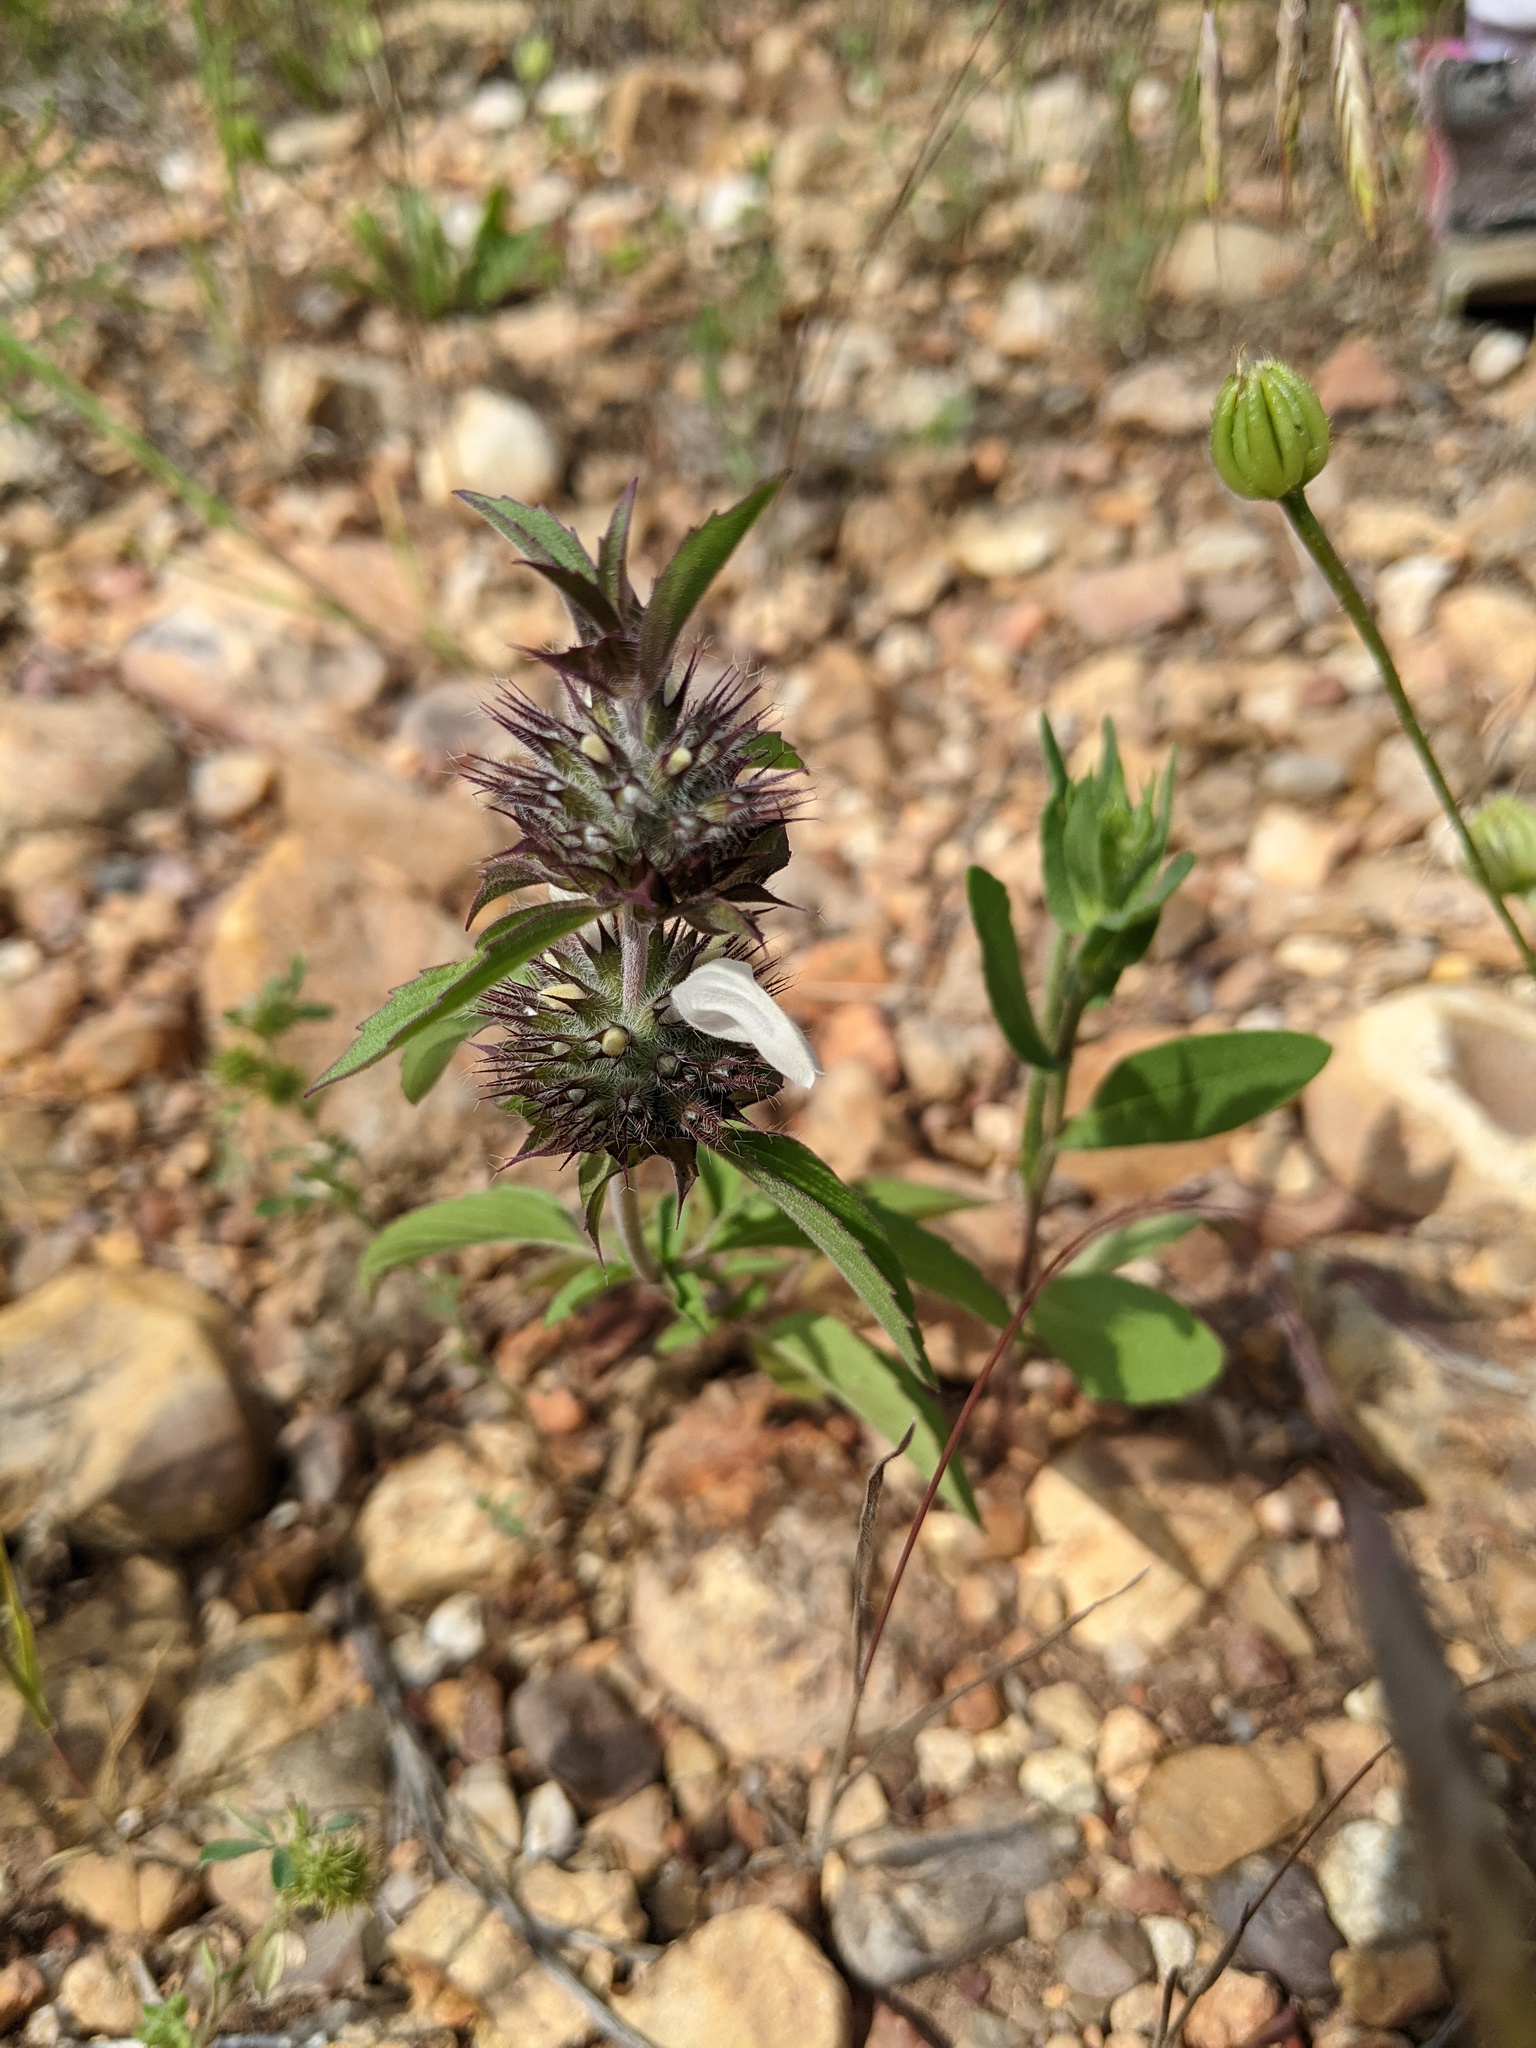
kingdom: Plantae
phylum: Tracheophyta
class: Magnoliopsida
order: Lamiales
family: Lamiaceae
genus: Monarda
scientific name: Monarda clinopodioides
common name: Basil beebalm
